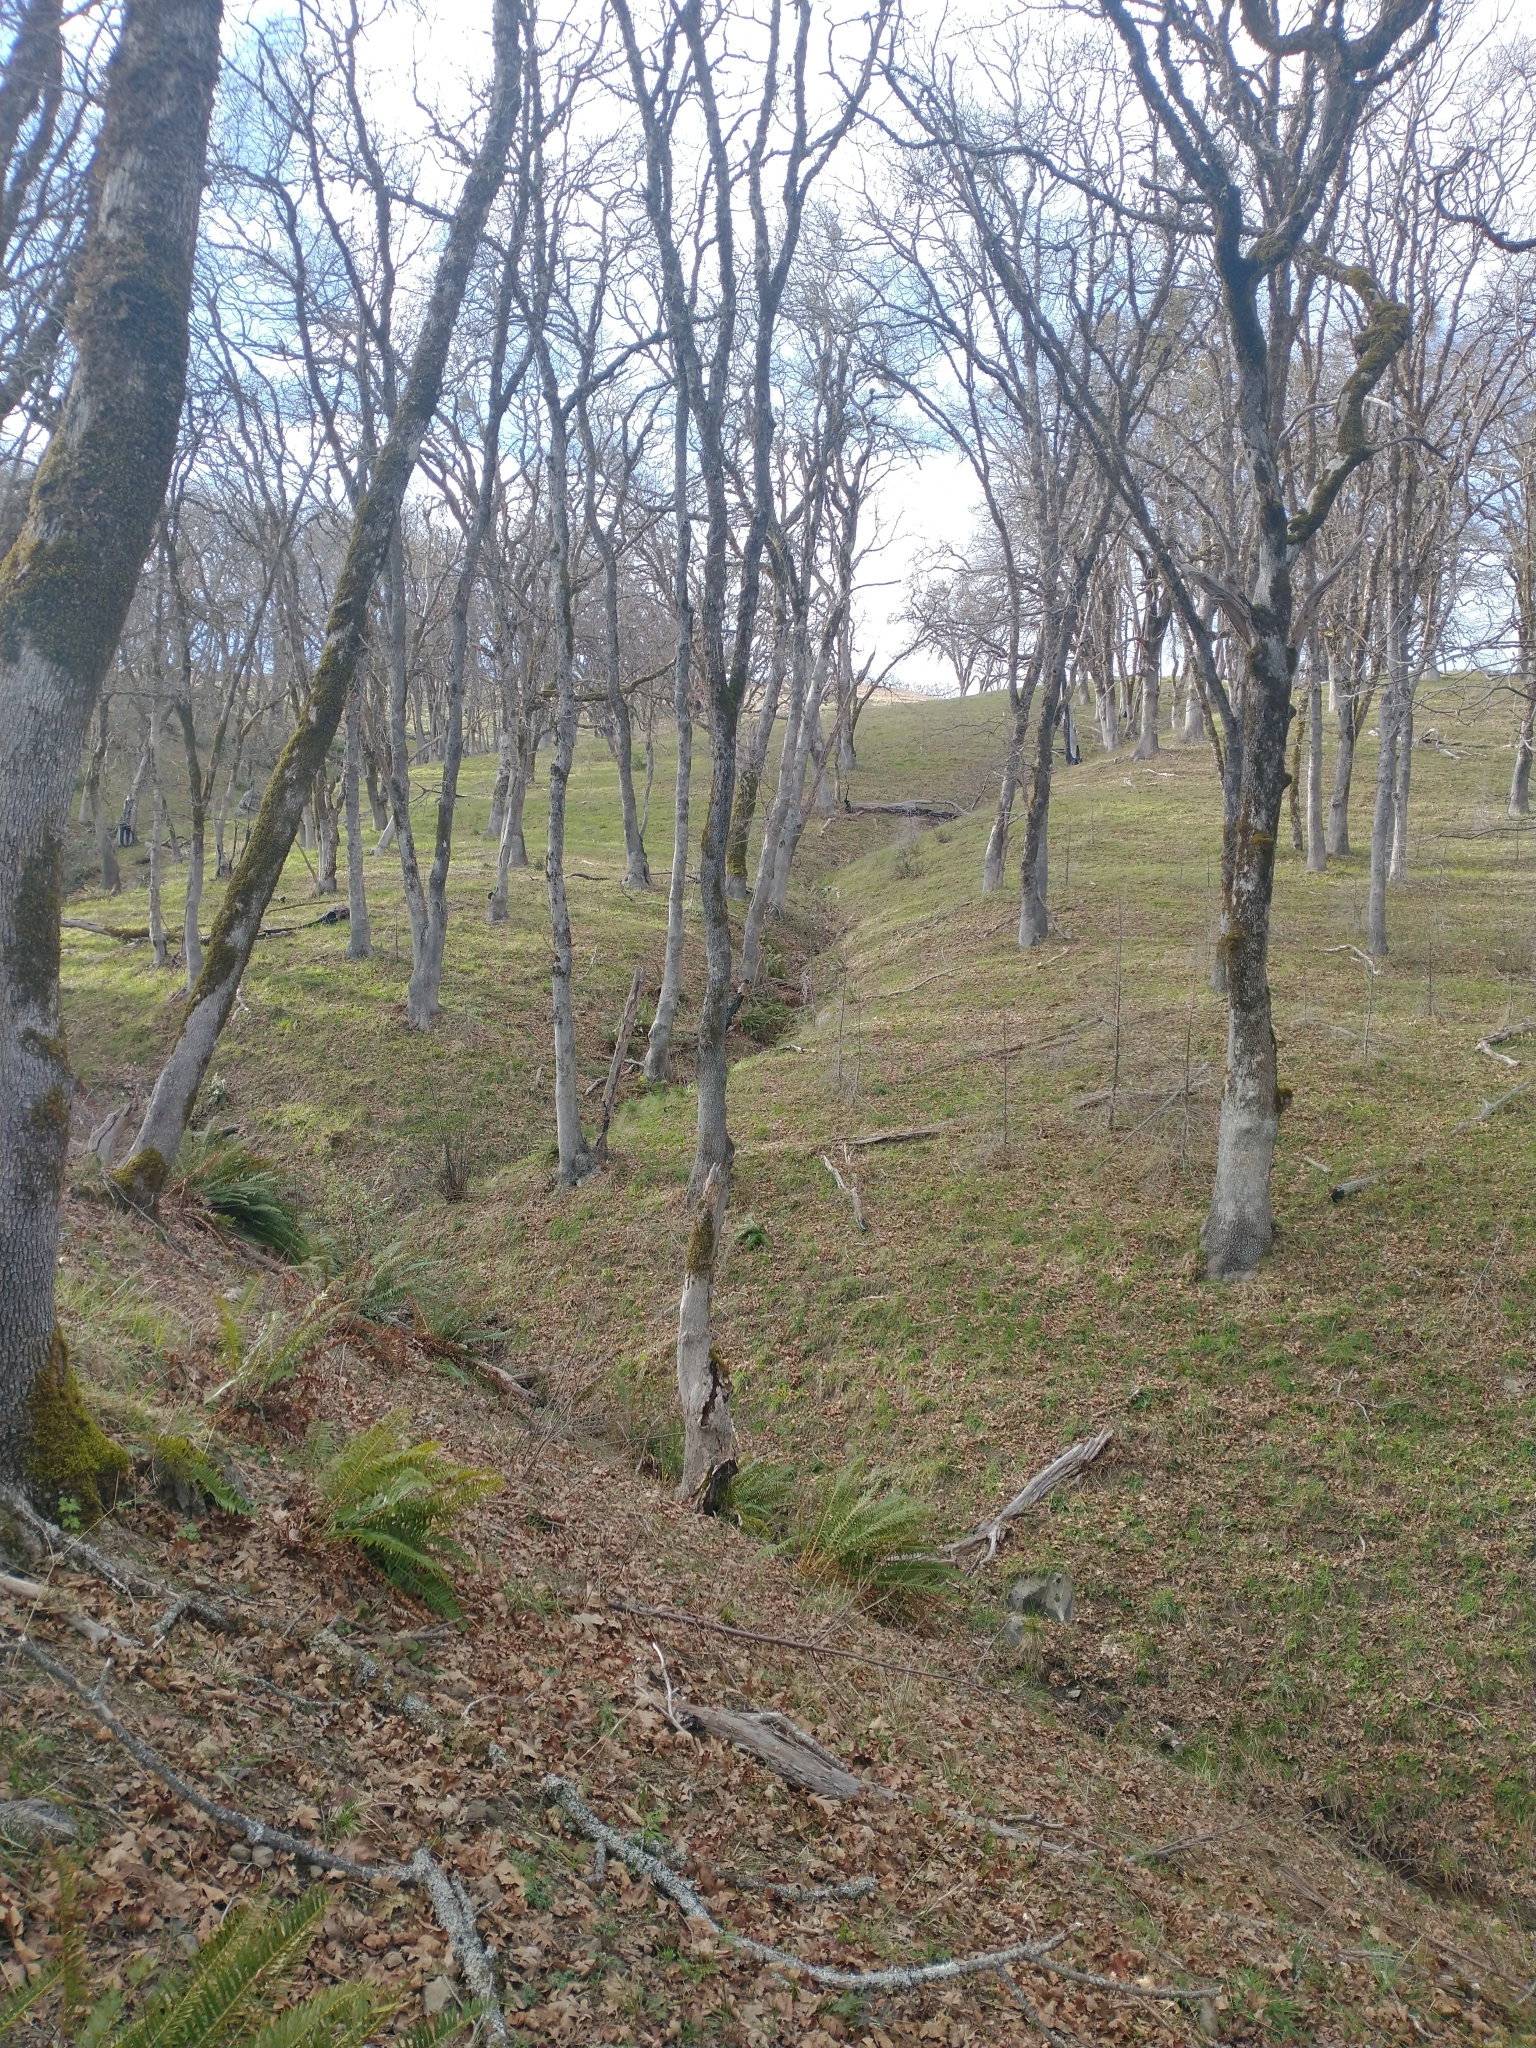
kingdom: Plantae
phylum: Tracheophyta
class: Magnoliopsida
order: Fagales
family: Fagaceae
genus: Quercus
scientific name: Quercus garryana
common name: Garry oak
